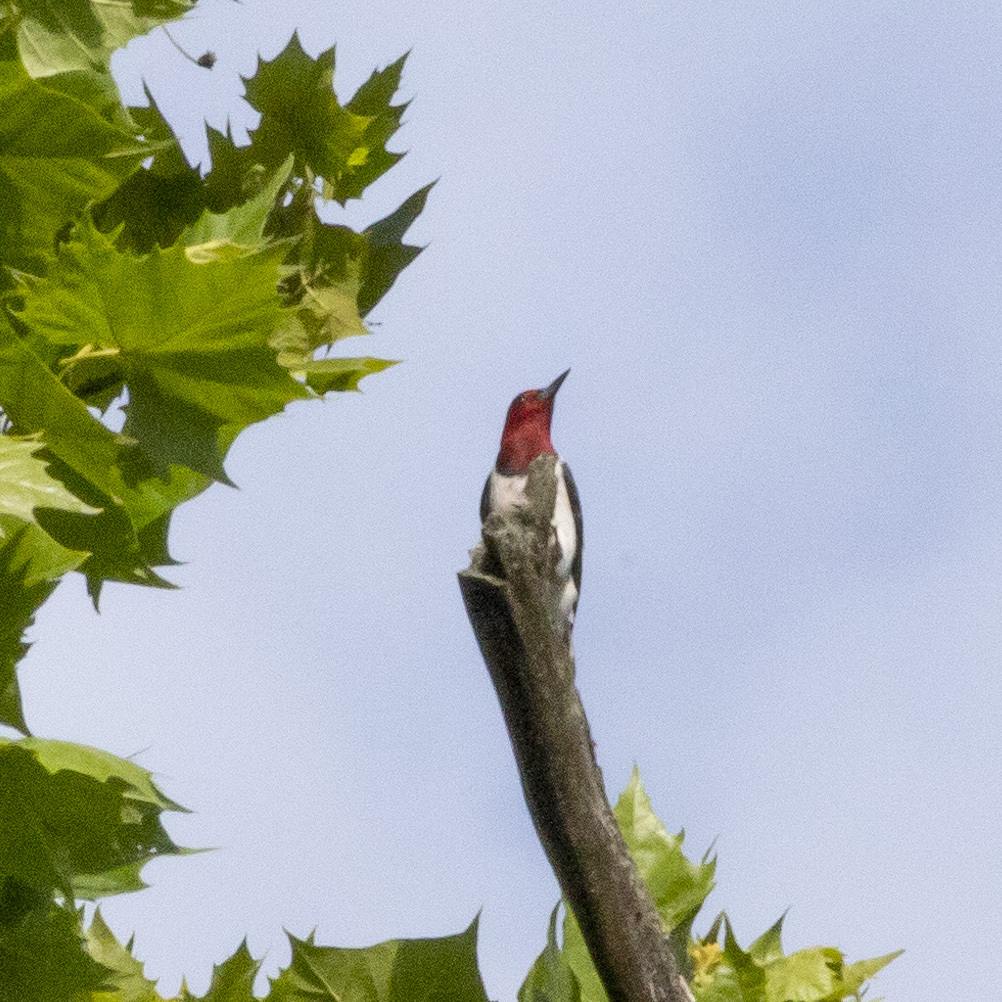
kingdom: Animalia
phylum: Chordata
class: Aves
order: Piciformes
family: Picidae
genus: Melanerpes
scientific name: Melanerpes erythrocephalus
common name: Red-headed woodpecker
